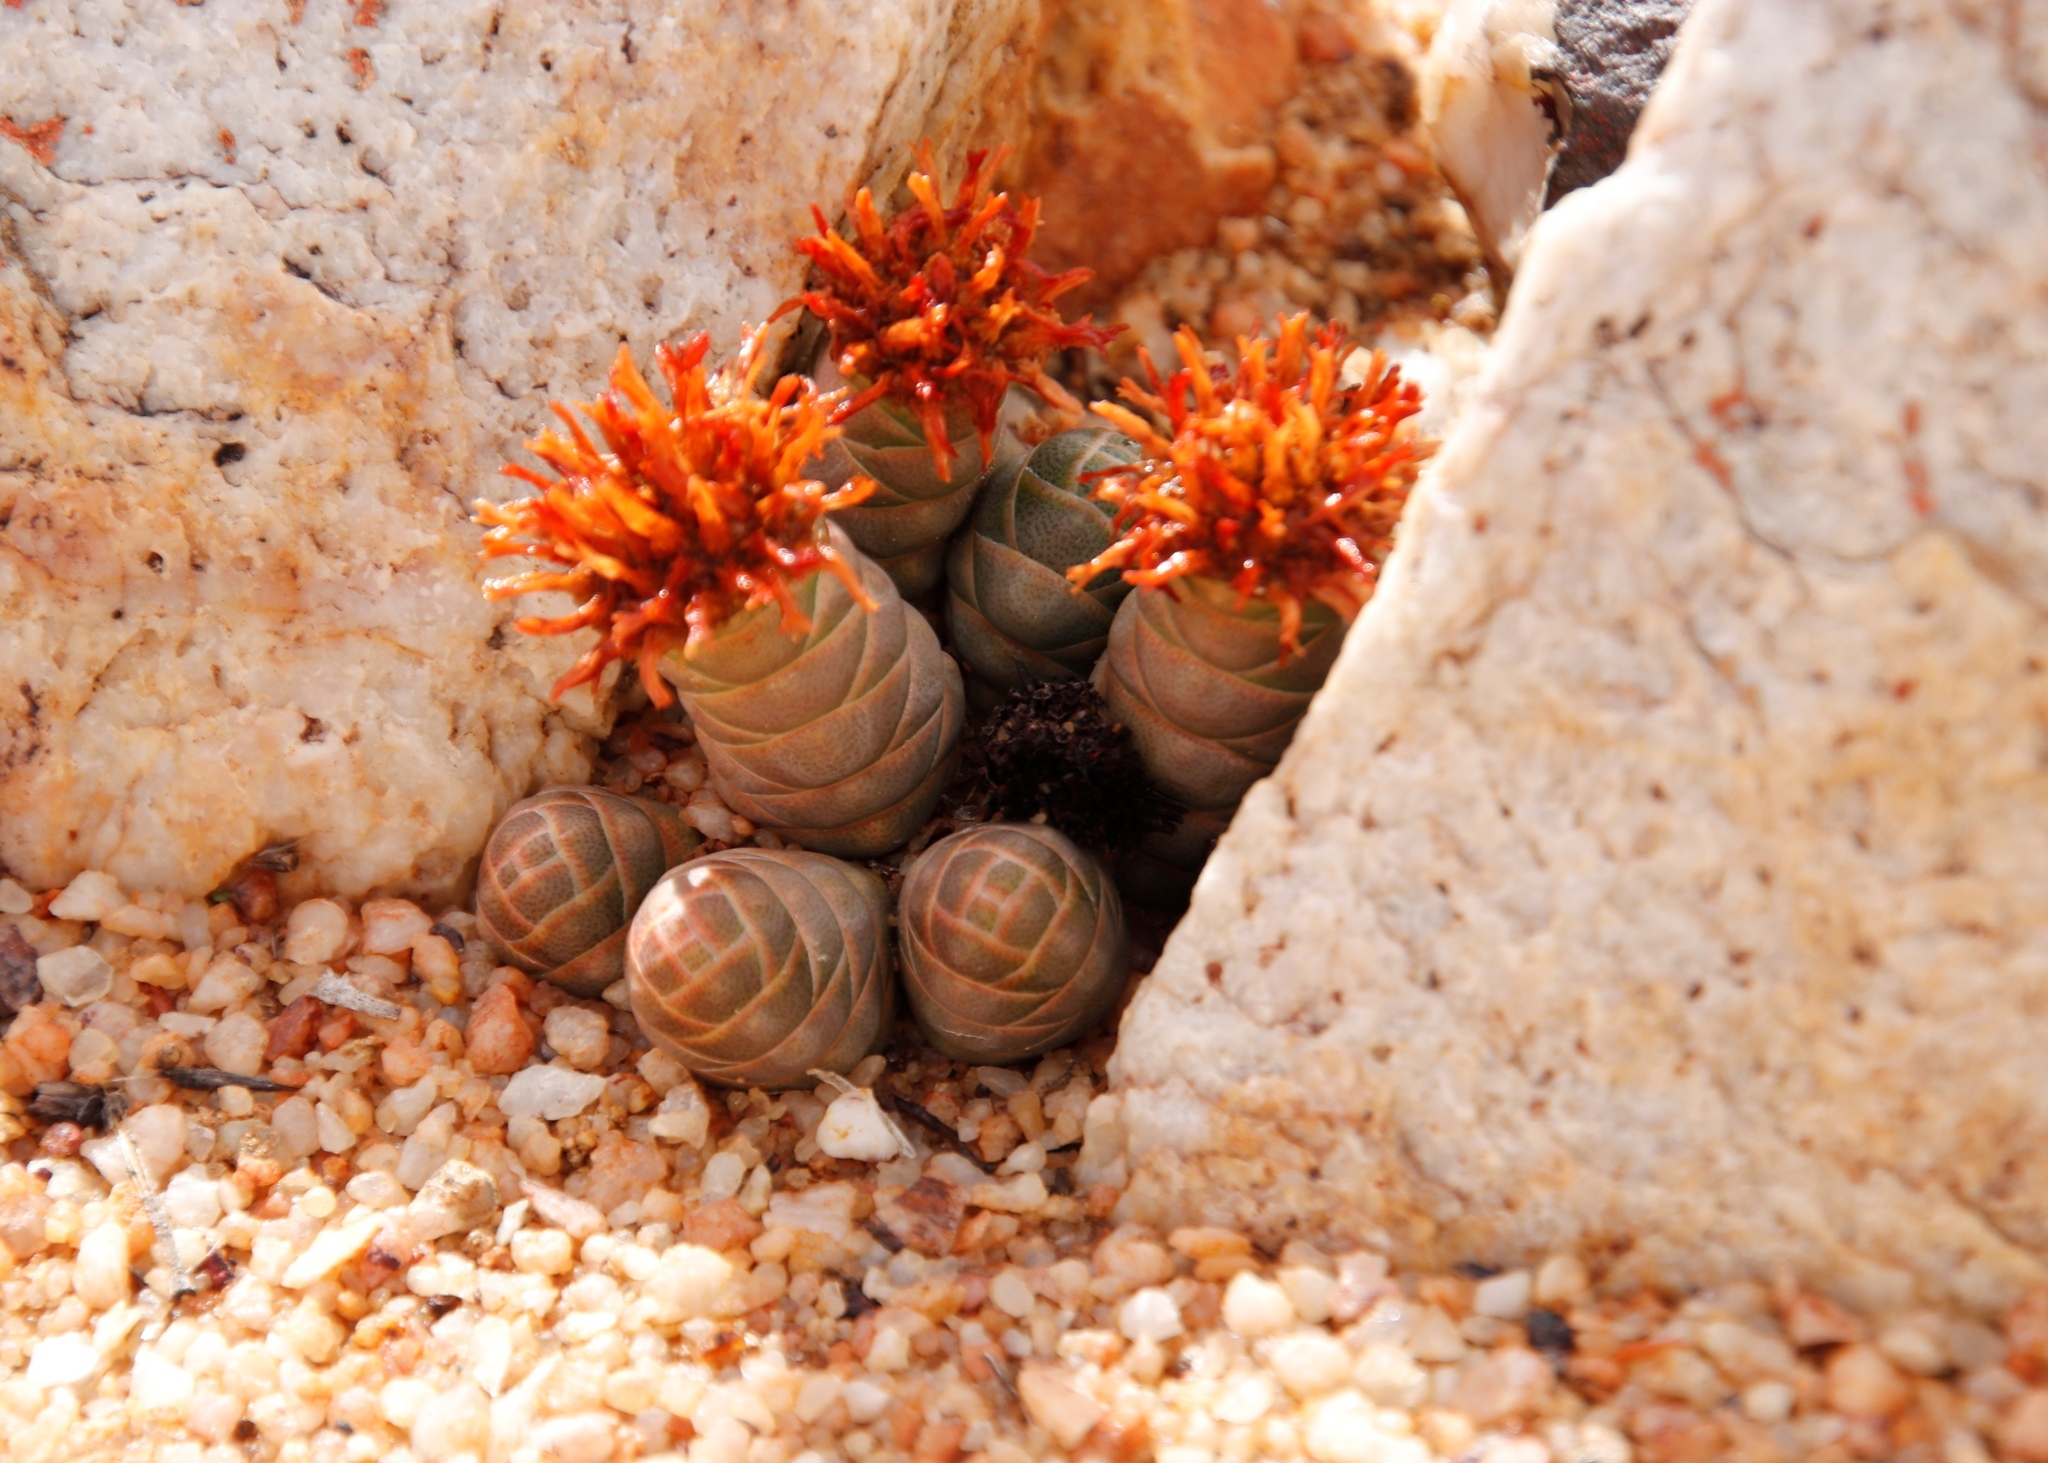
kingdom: Plantae
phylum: Tracheophyta
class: Magnoliopsida
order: Saxifragales
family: Crassulaceae
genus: Crassula
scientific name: Crassula barklyi
